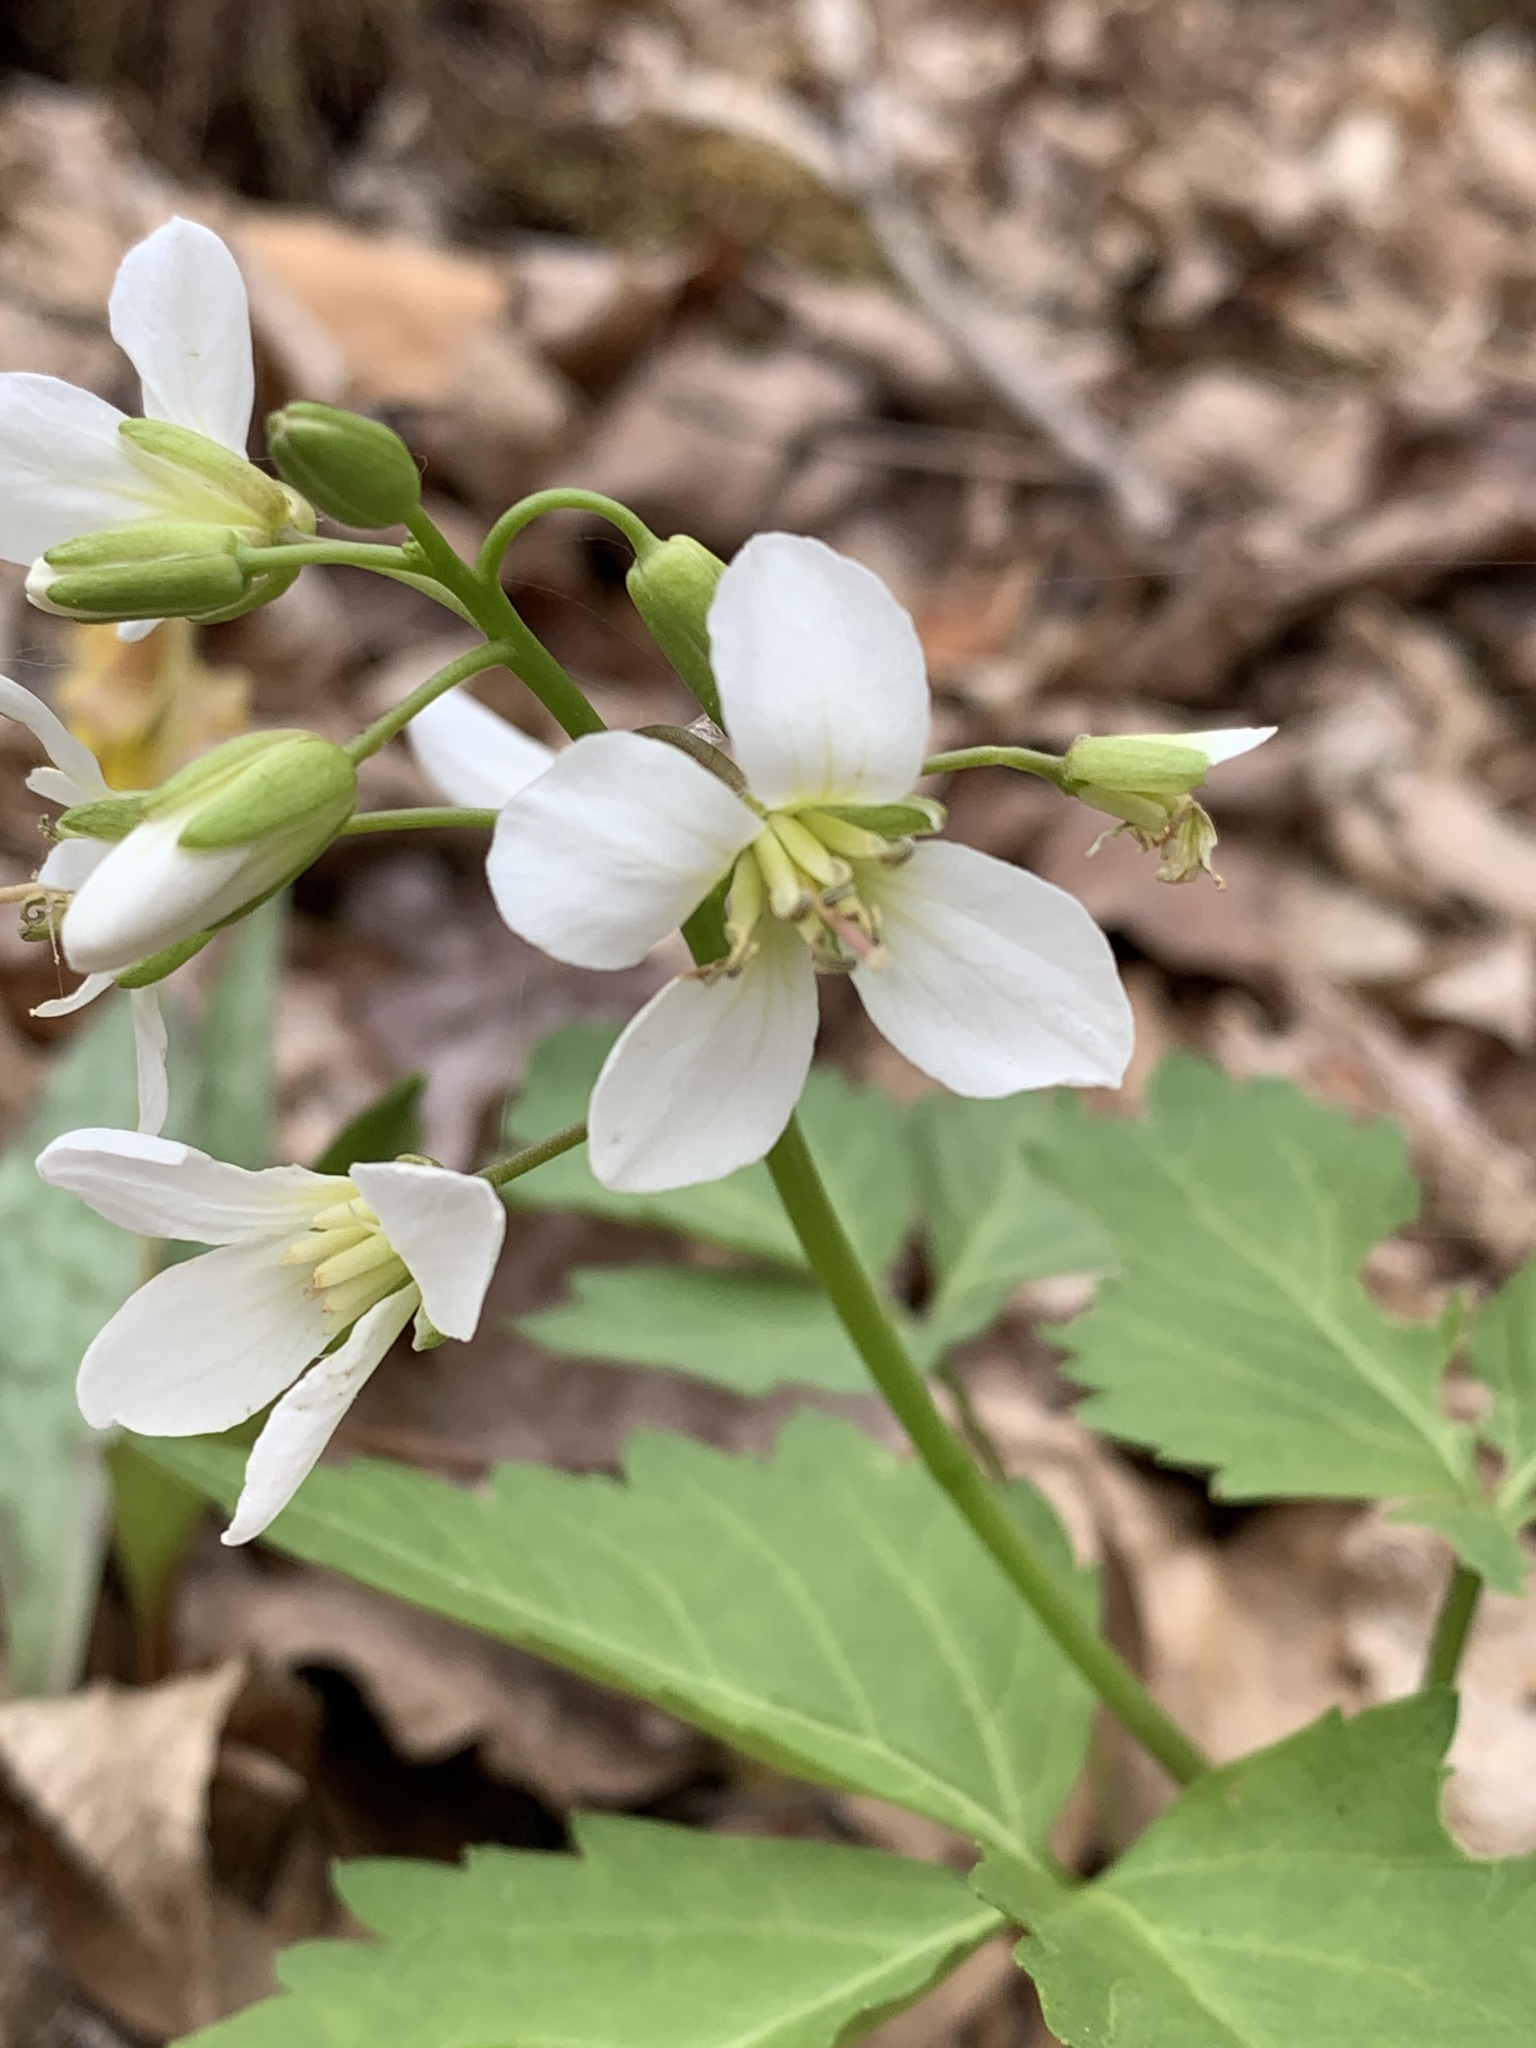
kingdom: Plantae
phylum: Tracheophyta
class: Magnoliopsida
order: Brassicales
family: Brassicaceae
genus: Cardamine
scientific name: Cardamine diphylla
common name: Broad-leaved toothwort
